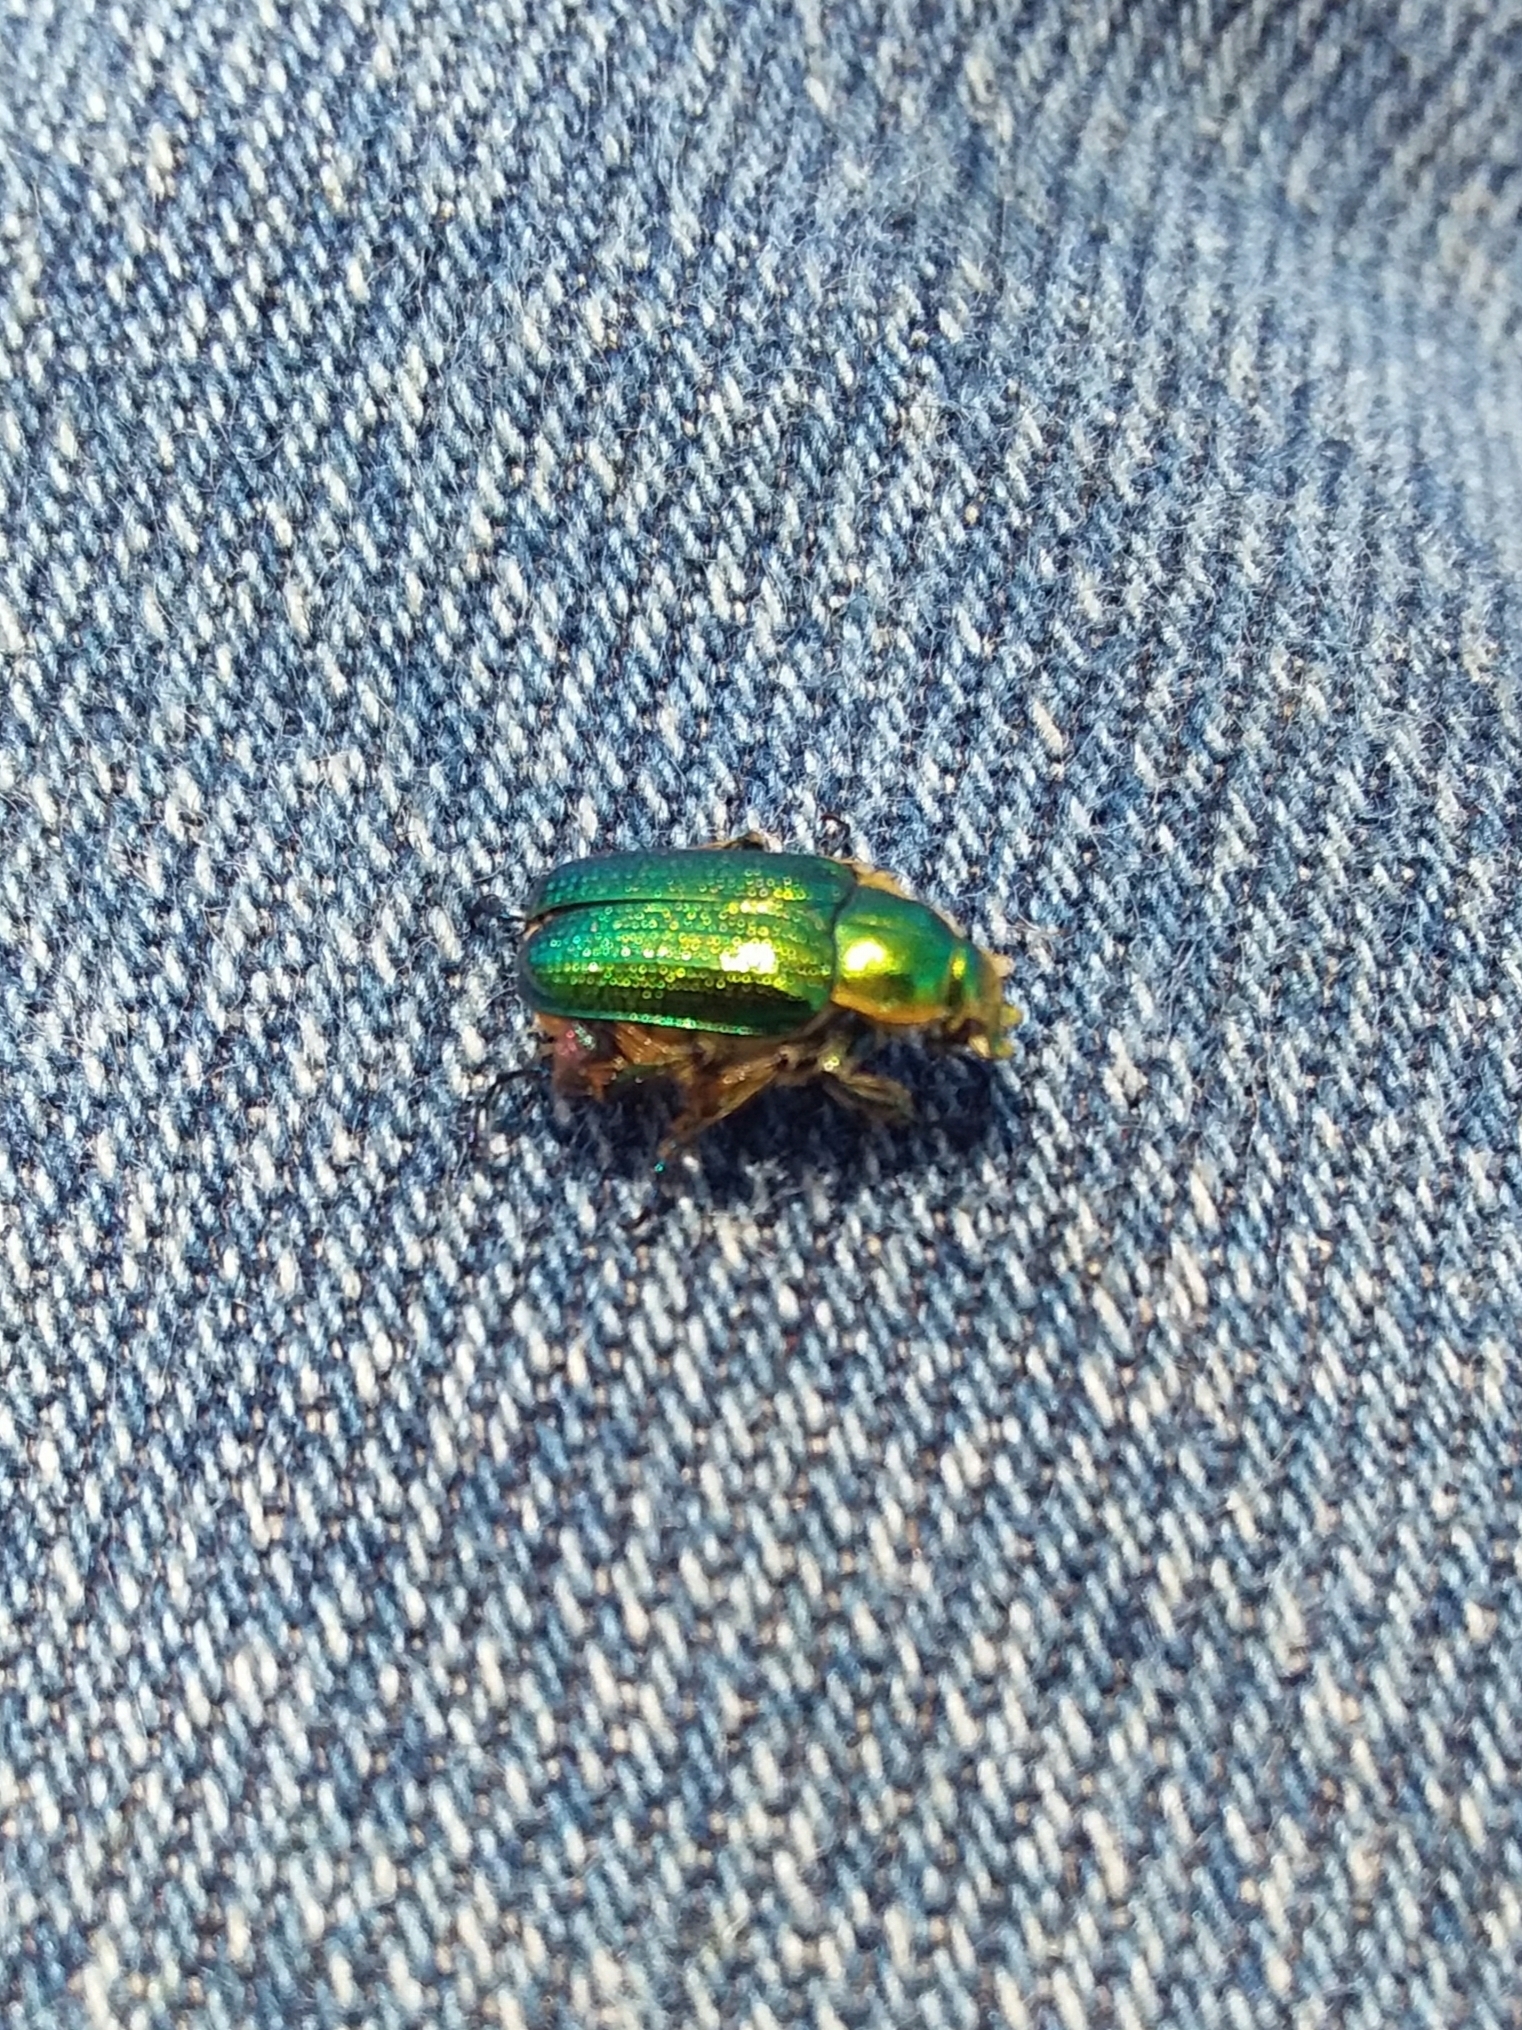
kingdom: Animalia
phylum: Arthropoda
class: Insecta
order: Coleoptera
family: Scarabaeidae
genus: Diphucephala
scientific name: Diphucephala colaspidoides
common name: Green scarab beetle
